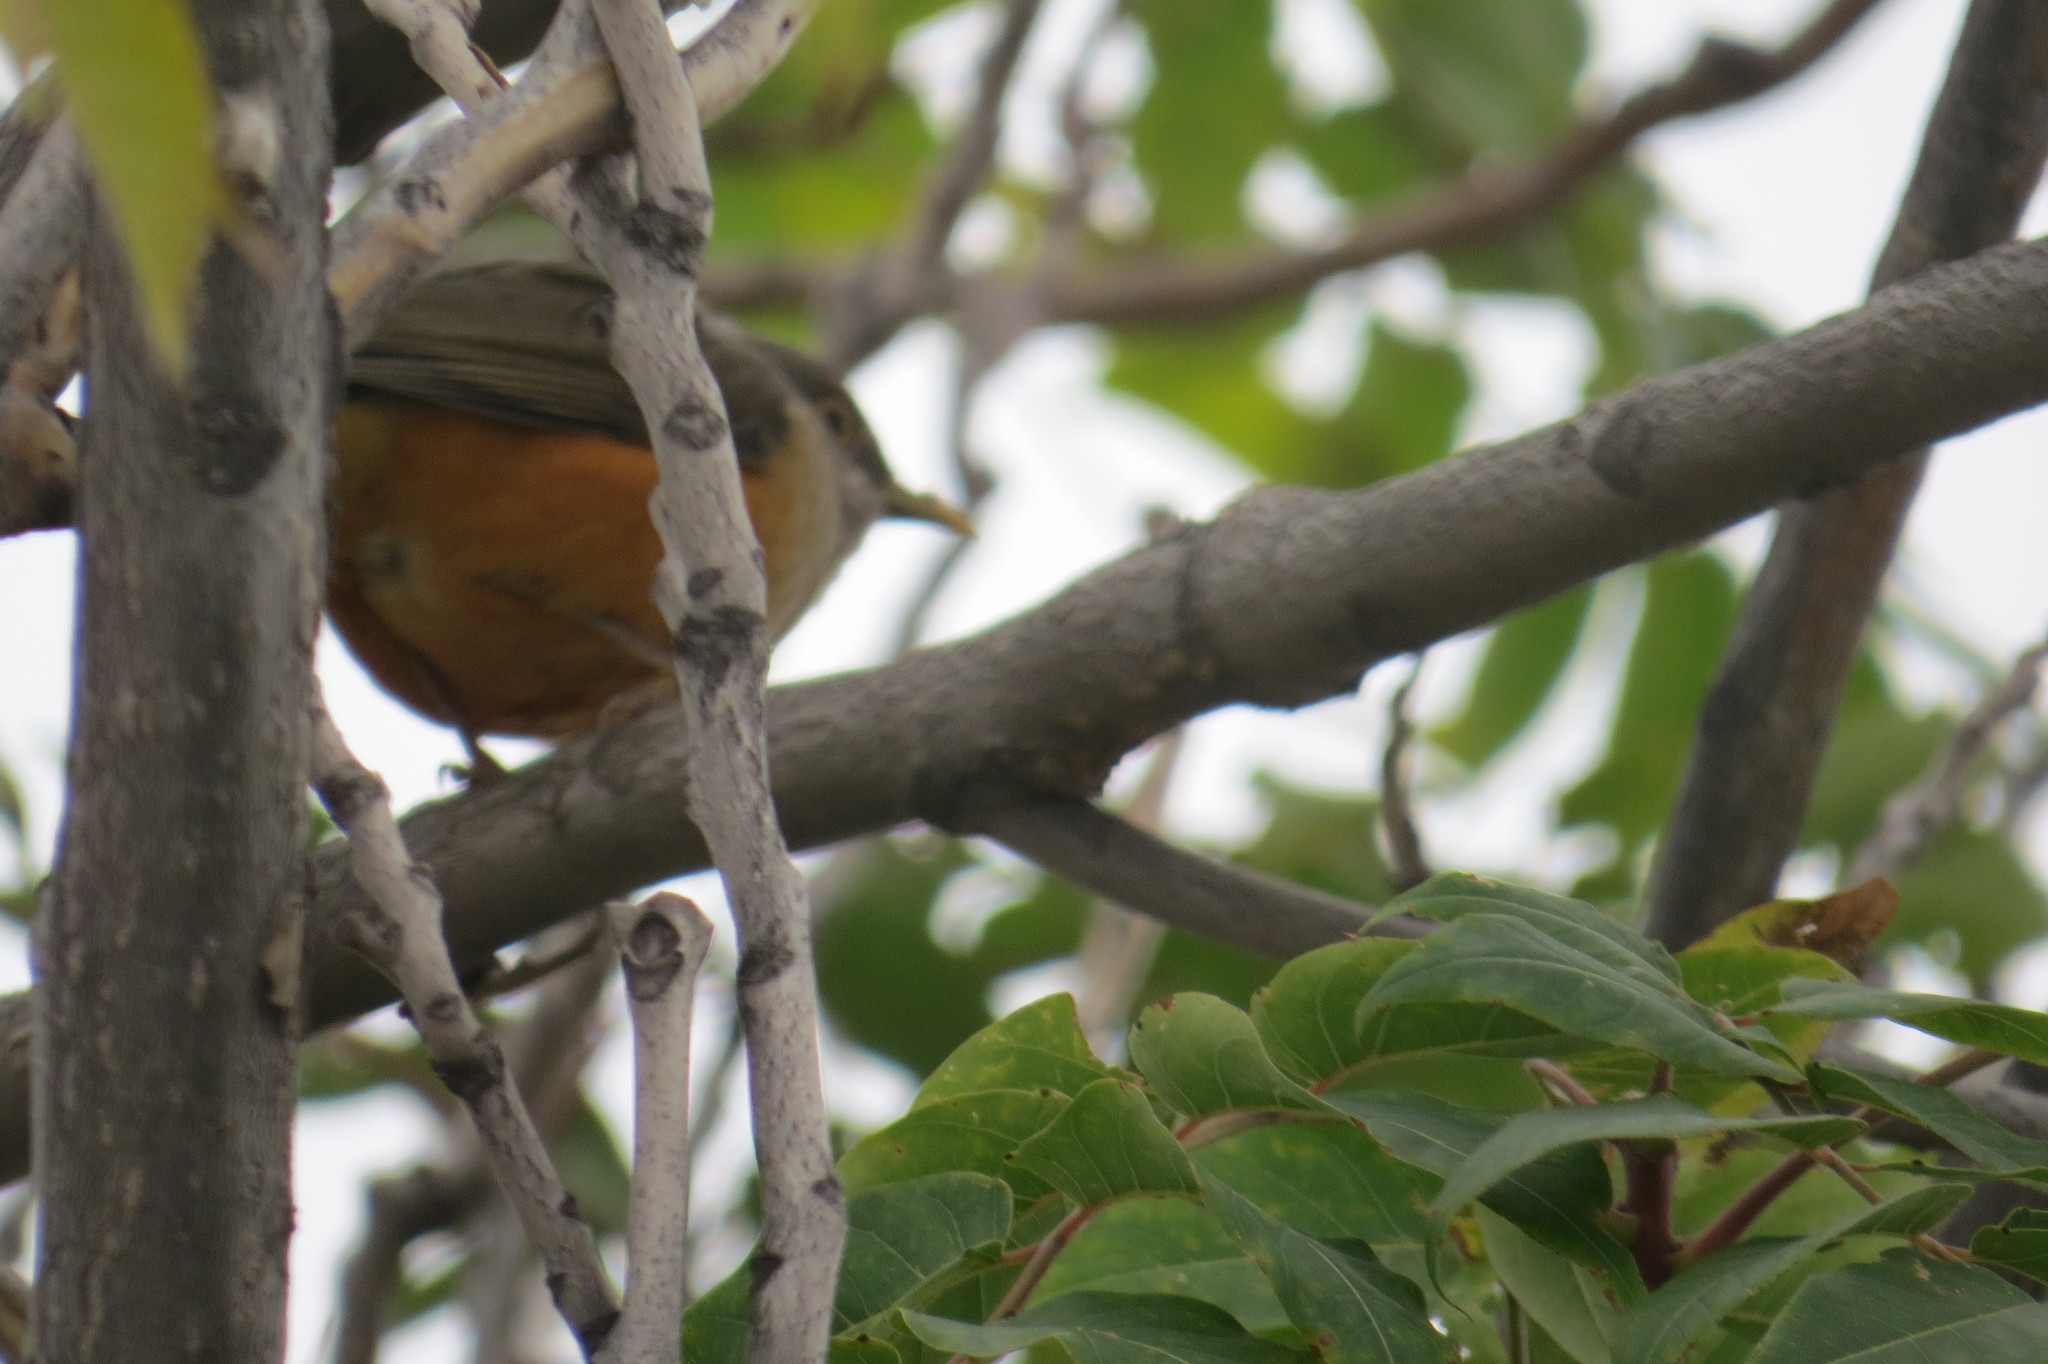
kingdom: Animalia
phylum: Chordata
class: Aves
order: Passeriformes
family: Turdidae
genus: Turdus
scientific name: Turdus rufiventris
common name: Rufous-bellied thrush
